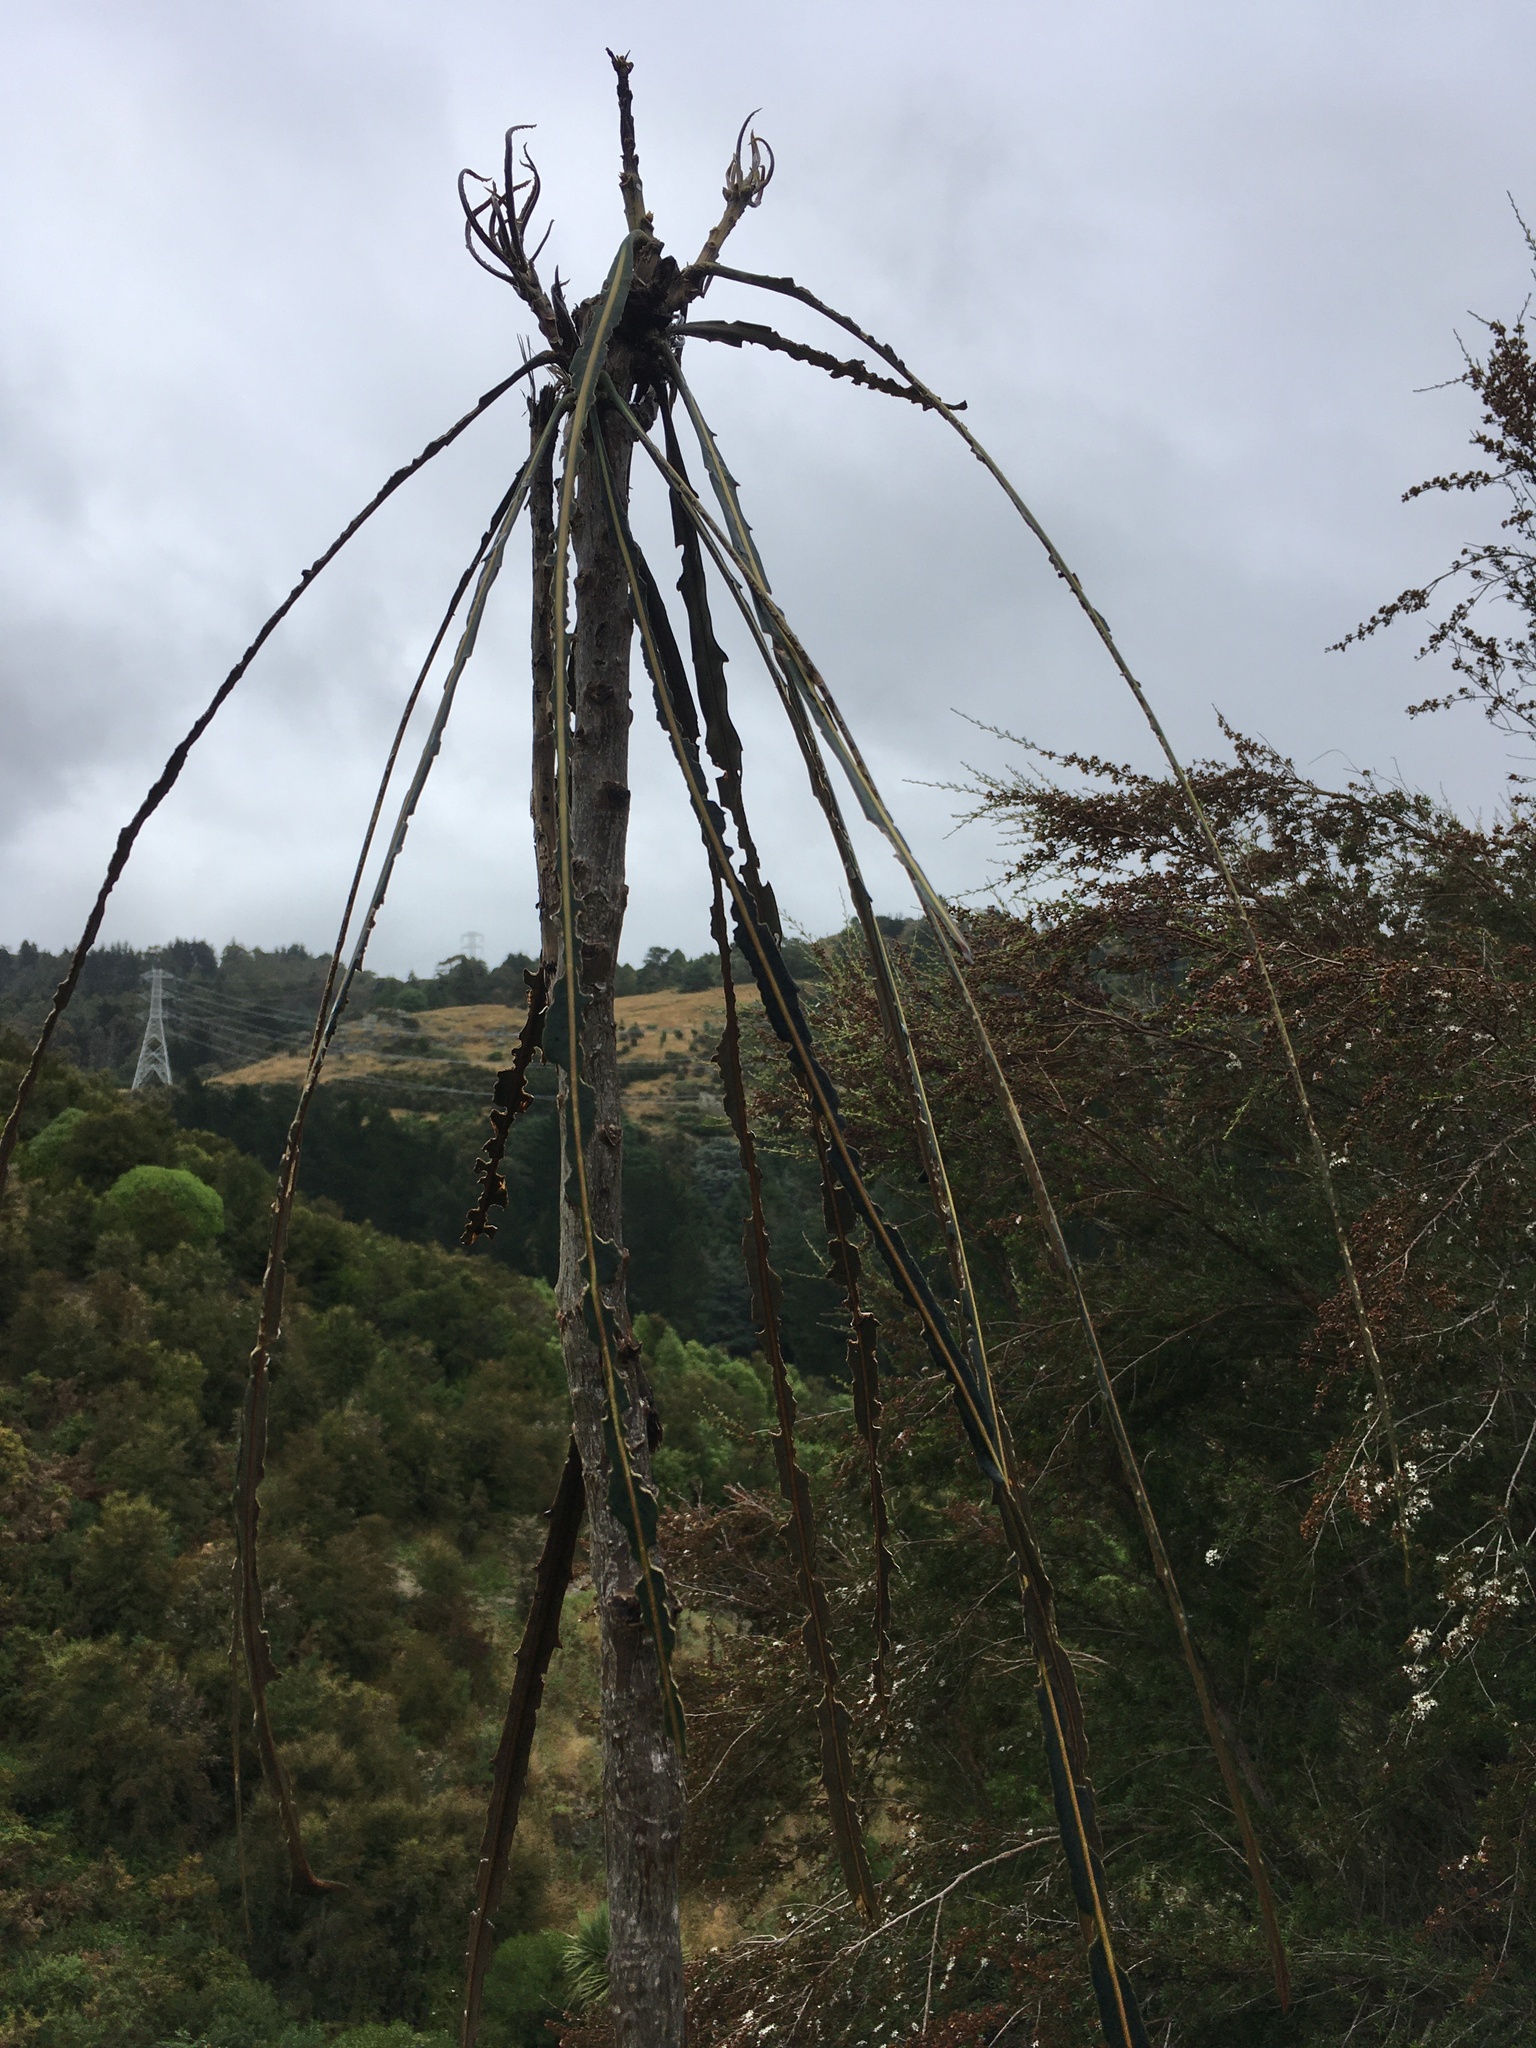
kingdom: Plantae
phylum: Tracheophyta
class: Magnoliopsida
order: Apiales
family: Araliaceae
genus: Pseudopanax
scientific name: Pseudopanax crassifolius
